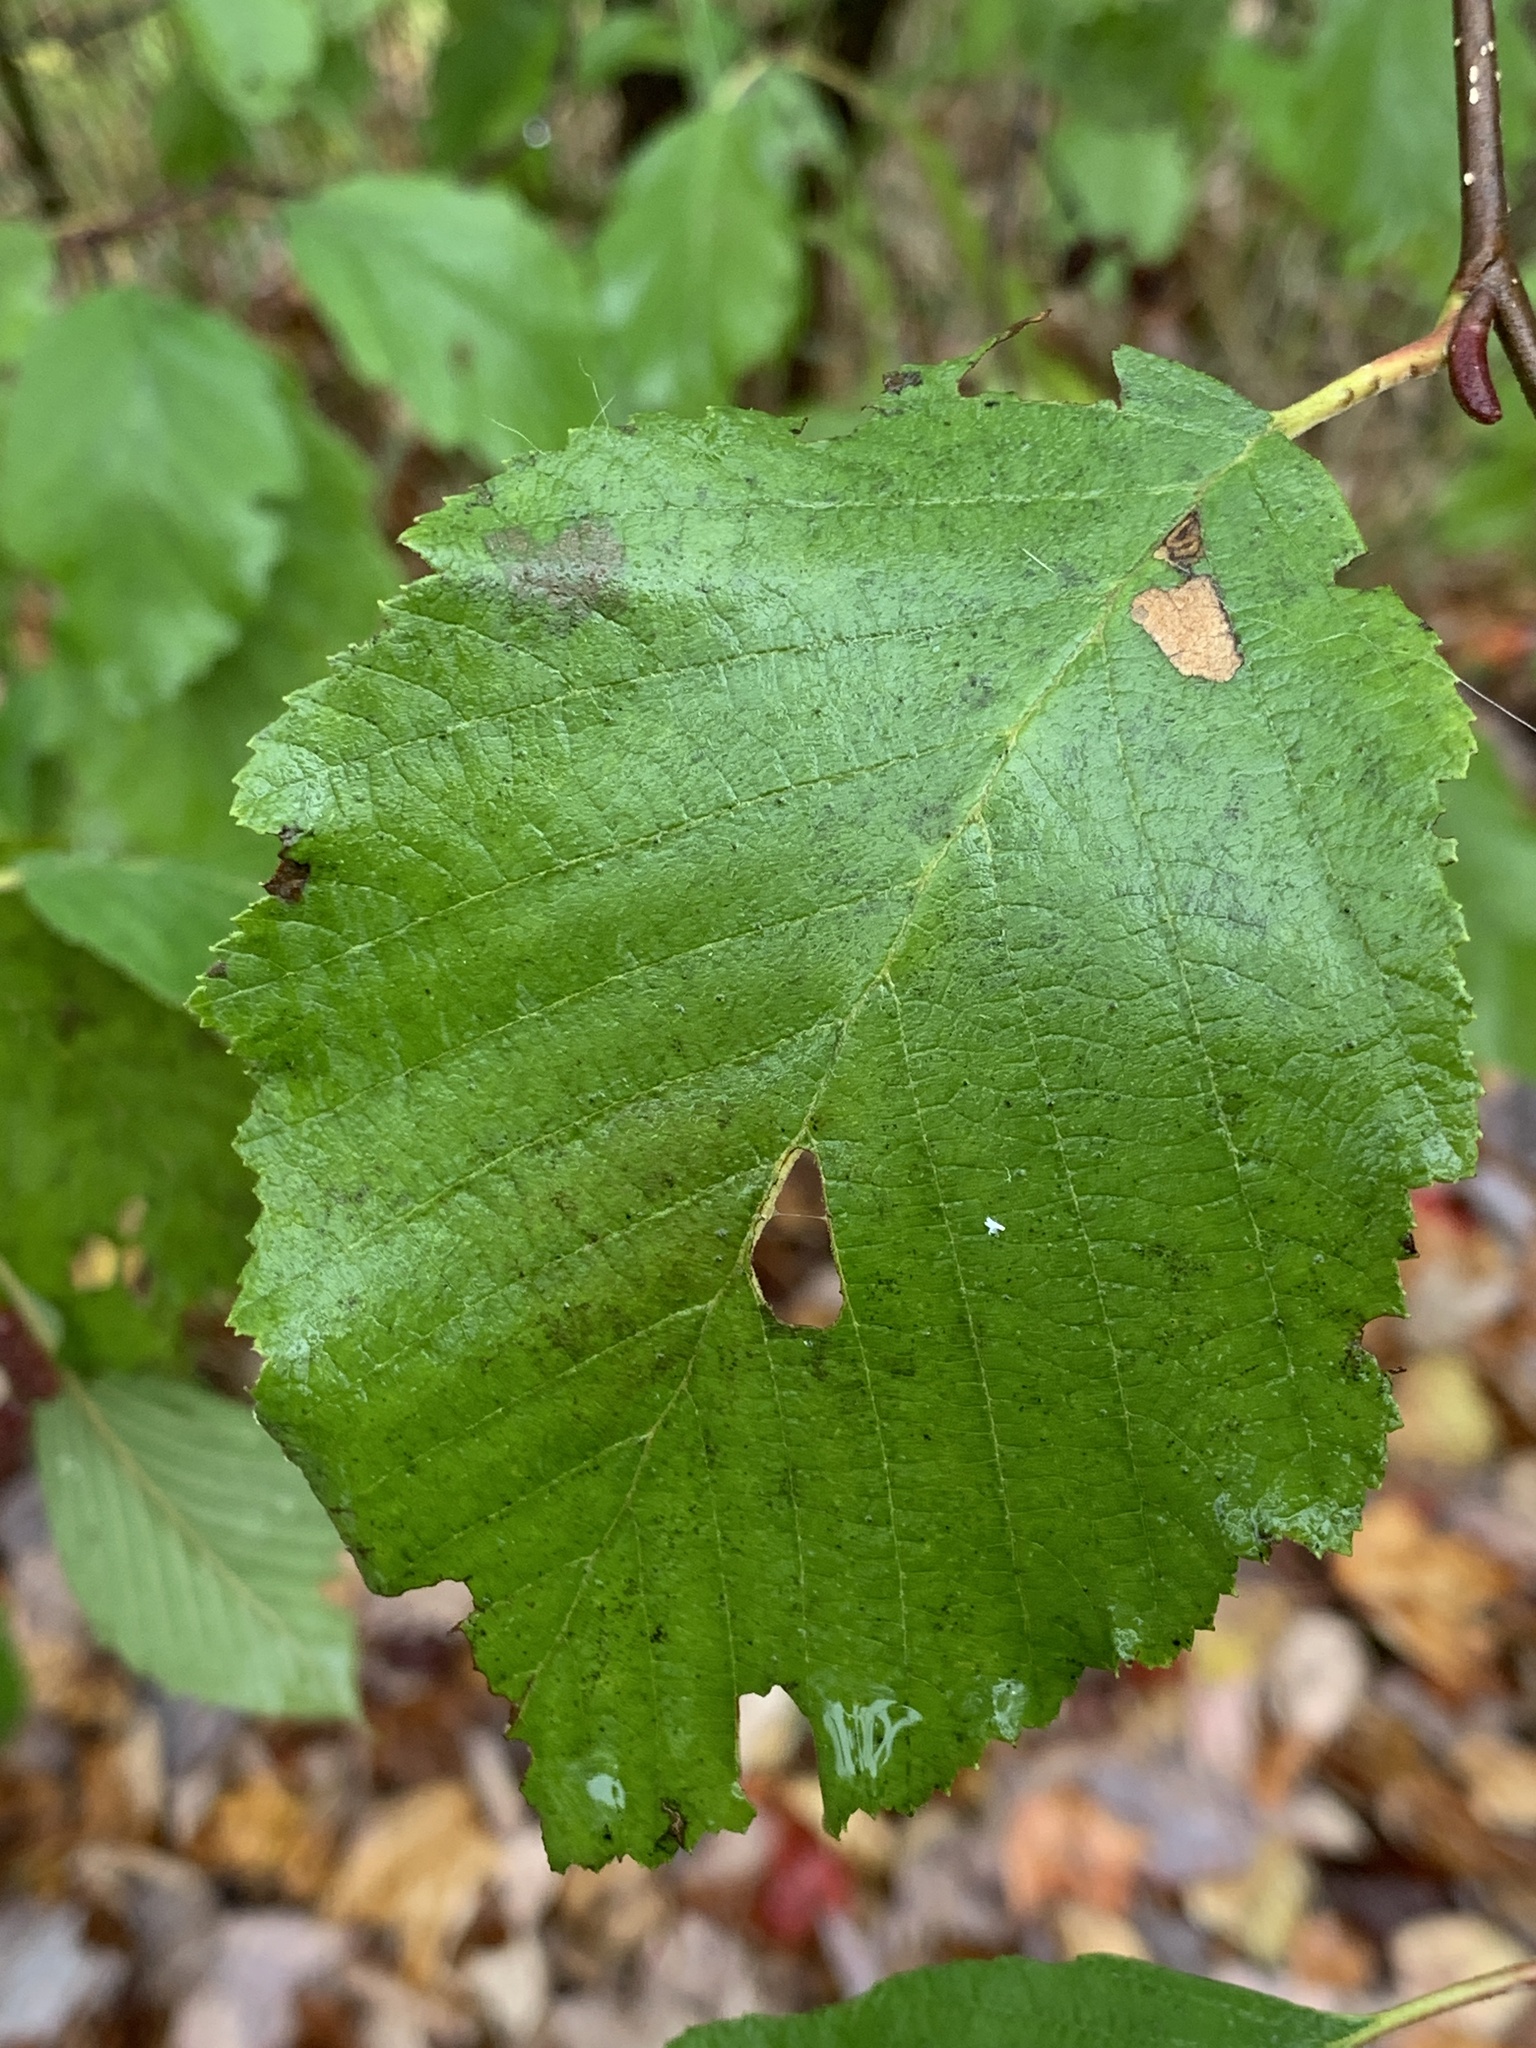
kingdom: Plantae
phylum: Tracheophyta
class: Magnoliopsida
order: Fagales
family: Betulaceae
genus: Alnus
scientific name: Alnus incana
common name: Grey alder
